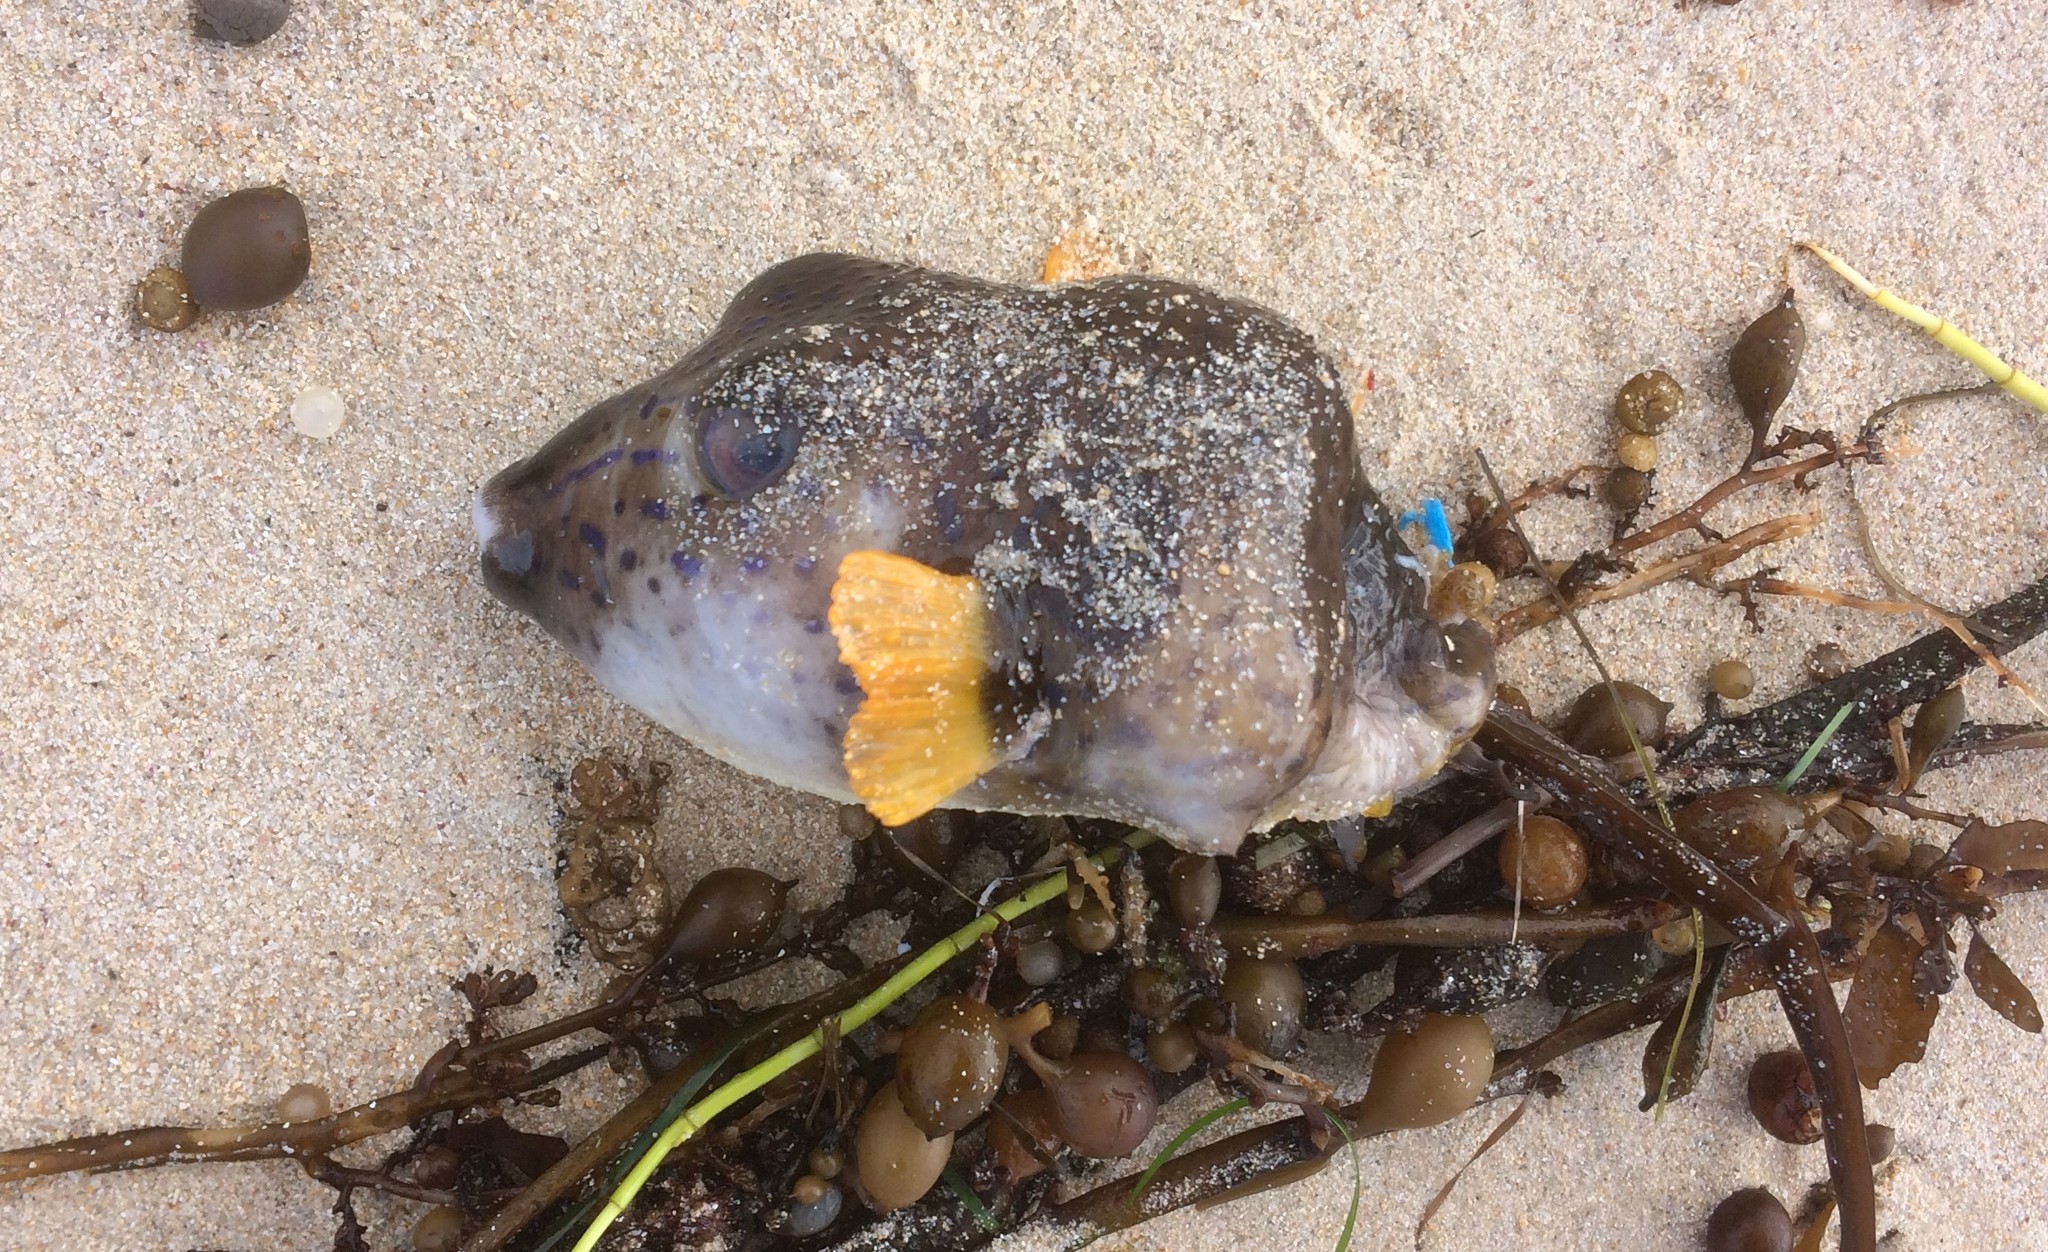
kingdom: Animalia
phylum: Chordata
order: Tetraodontiformes
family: Tetraodontidae
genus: Omegophora
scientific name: Omegophora cyanopunctata
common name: Bluespotted toadfish
